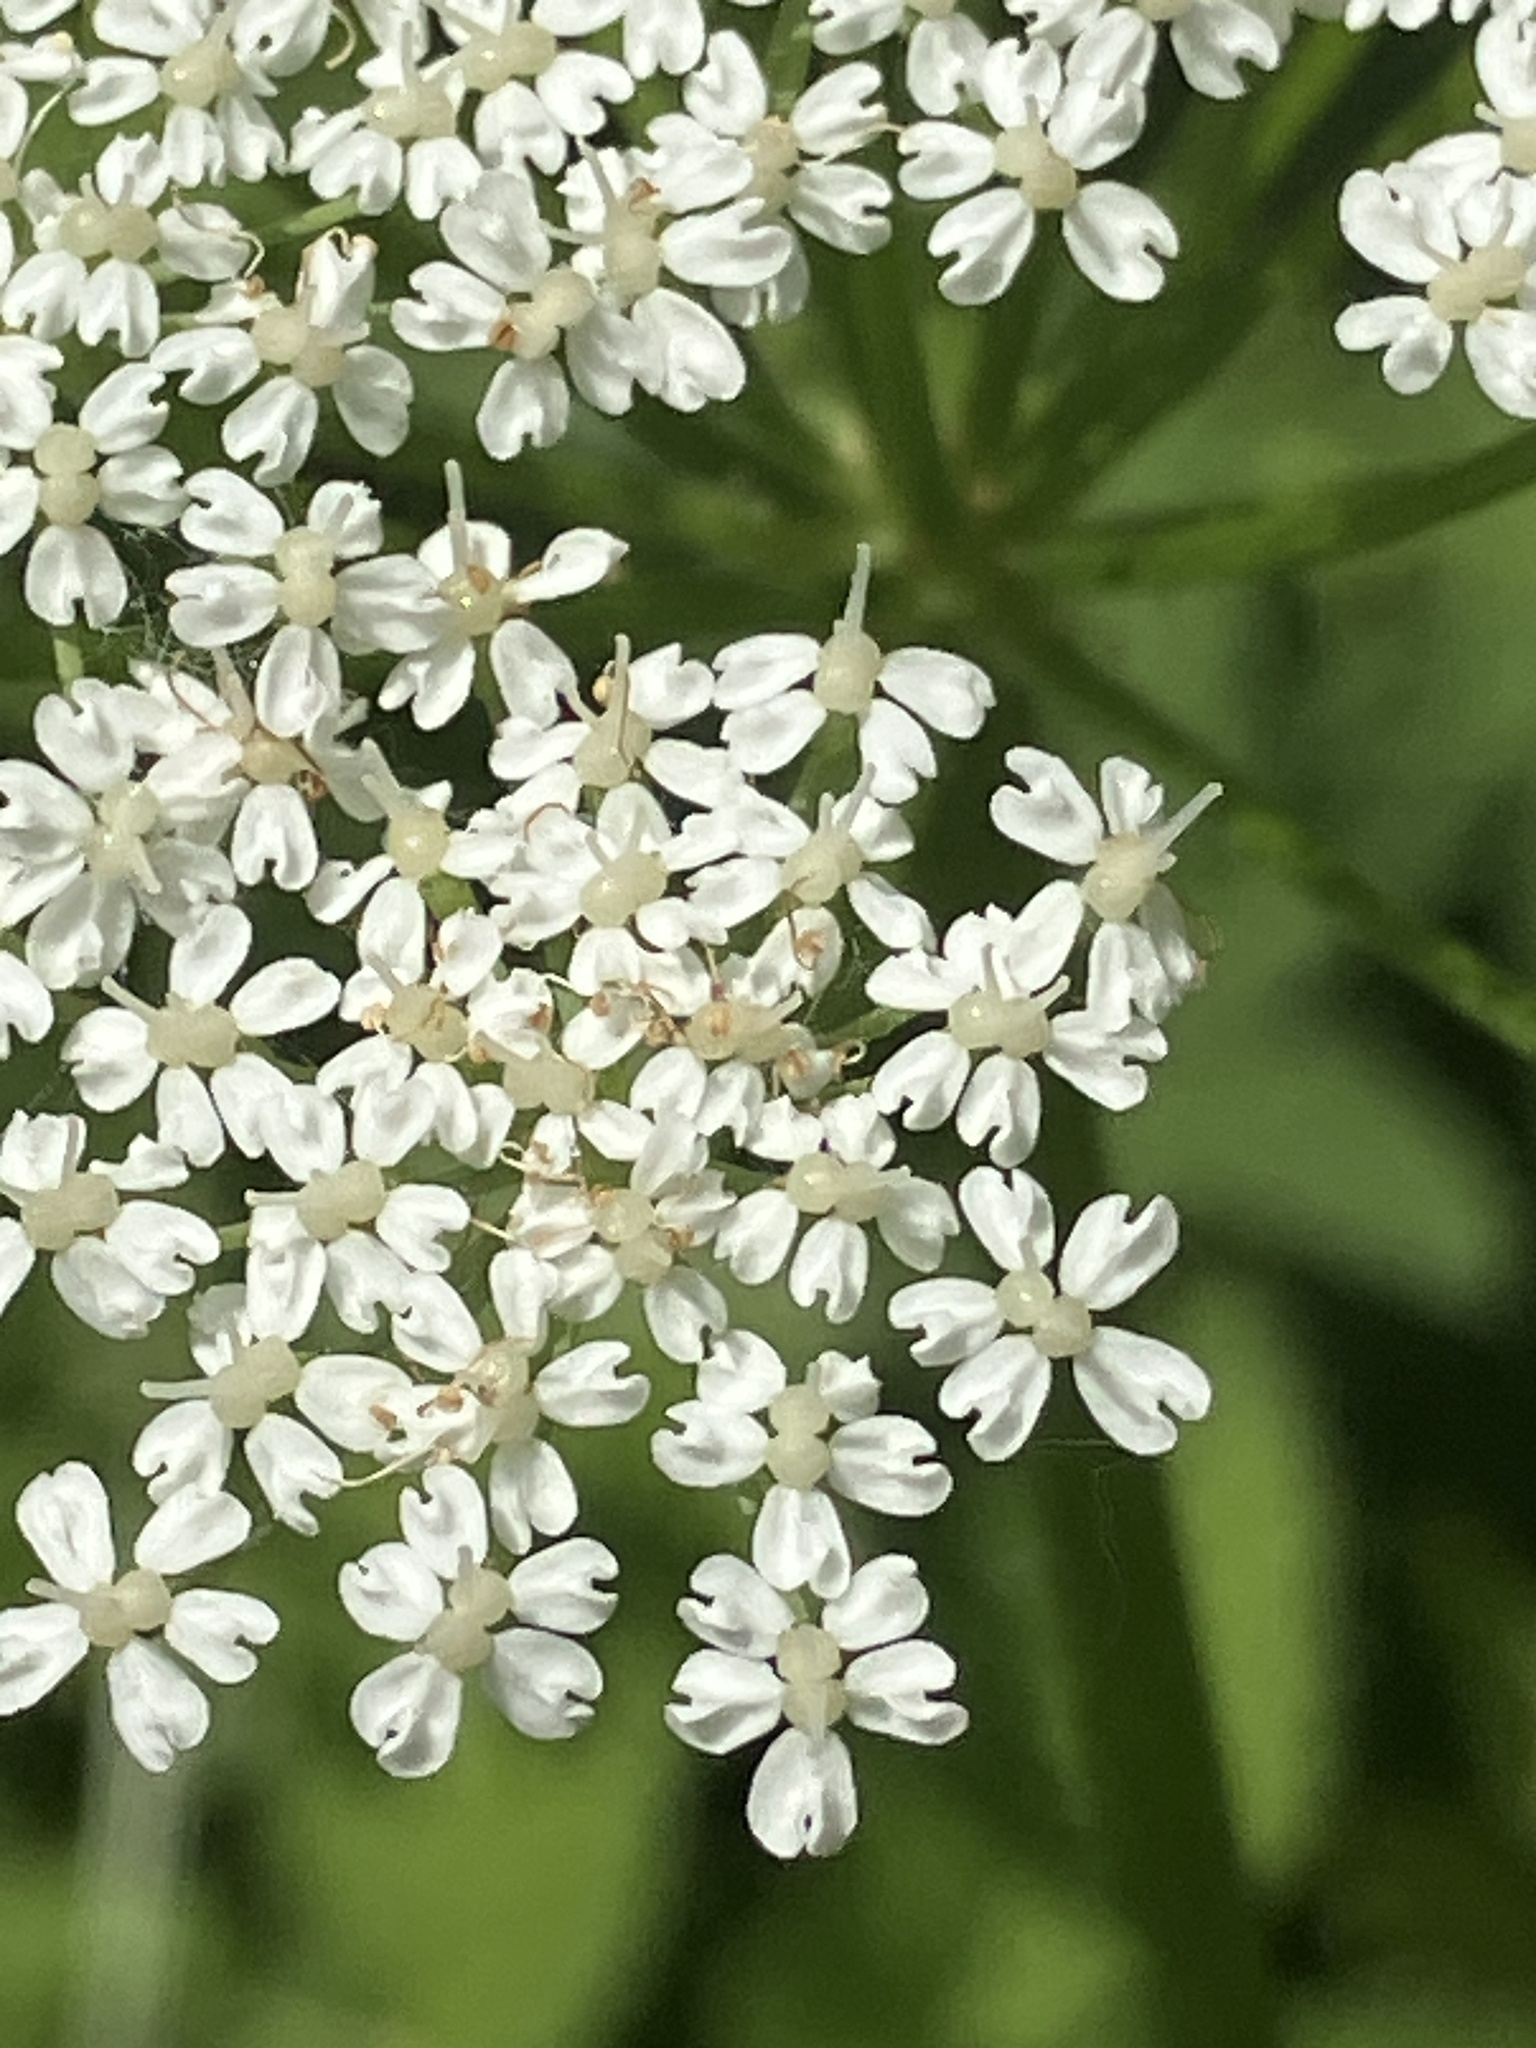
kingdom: Plantae
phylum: Tracheophyta
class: Magnoliopsida
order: Apiales
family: Apiaceae
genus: Aegopodium
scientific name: Aegopodium podagraria
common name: Ground-elder
